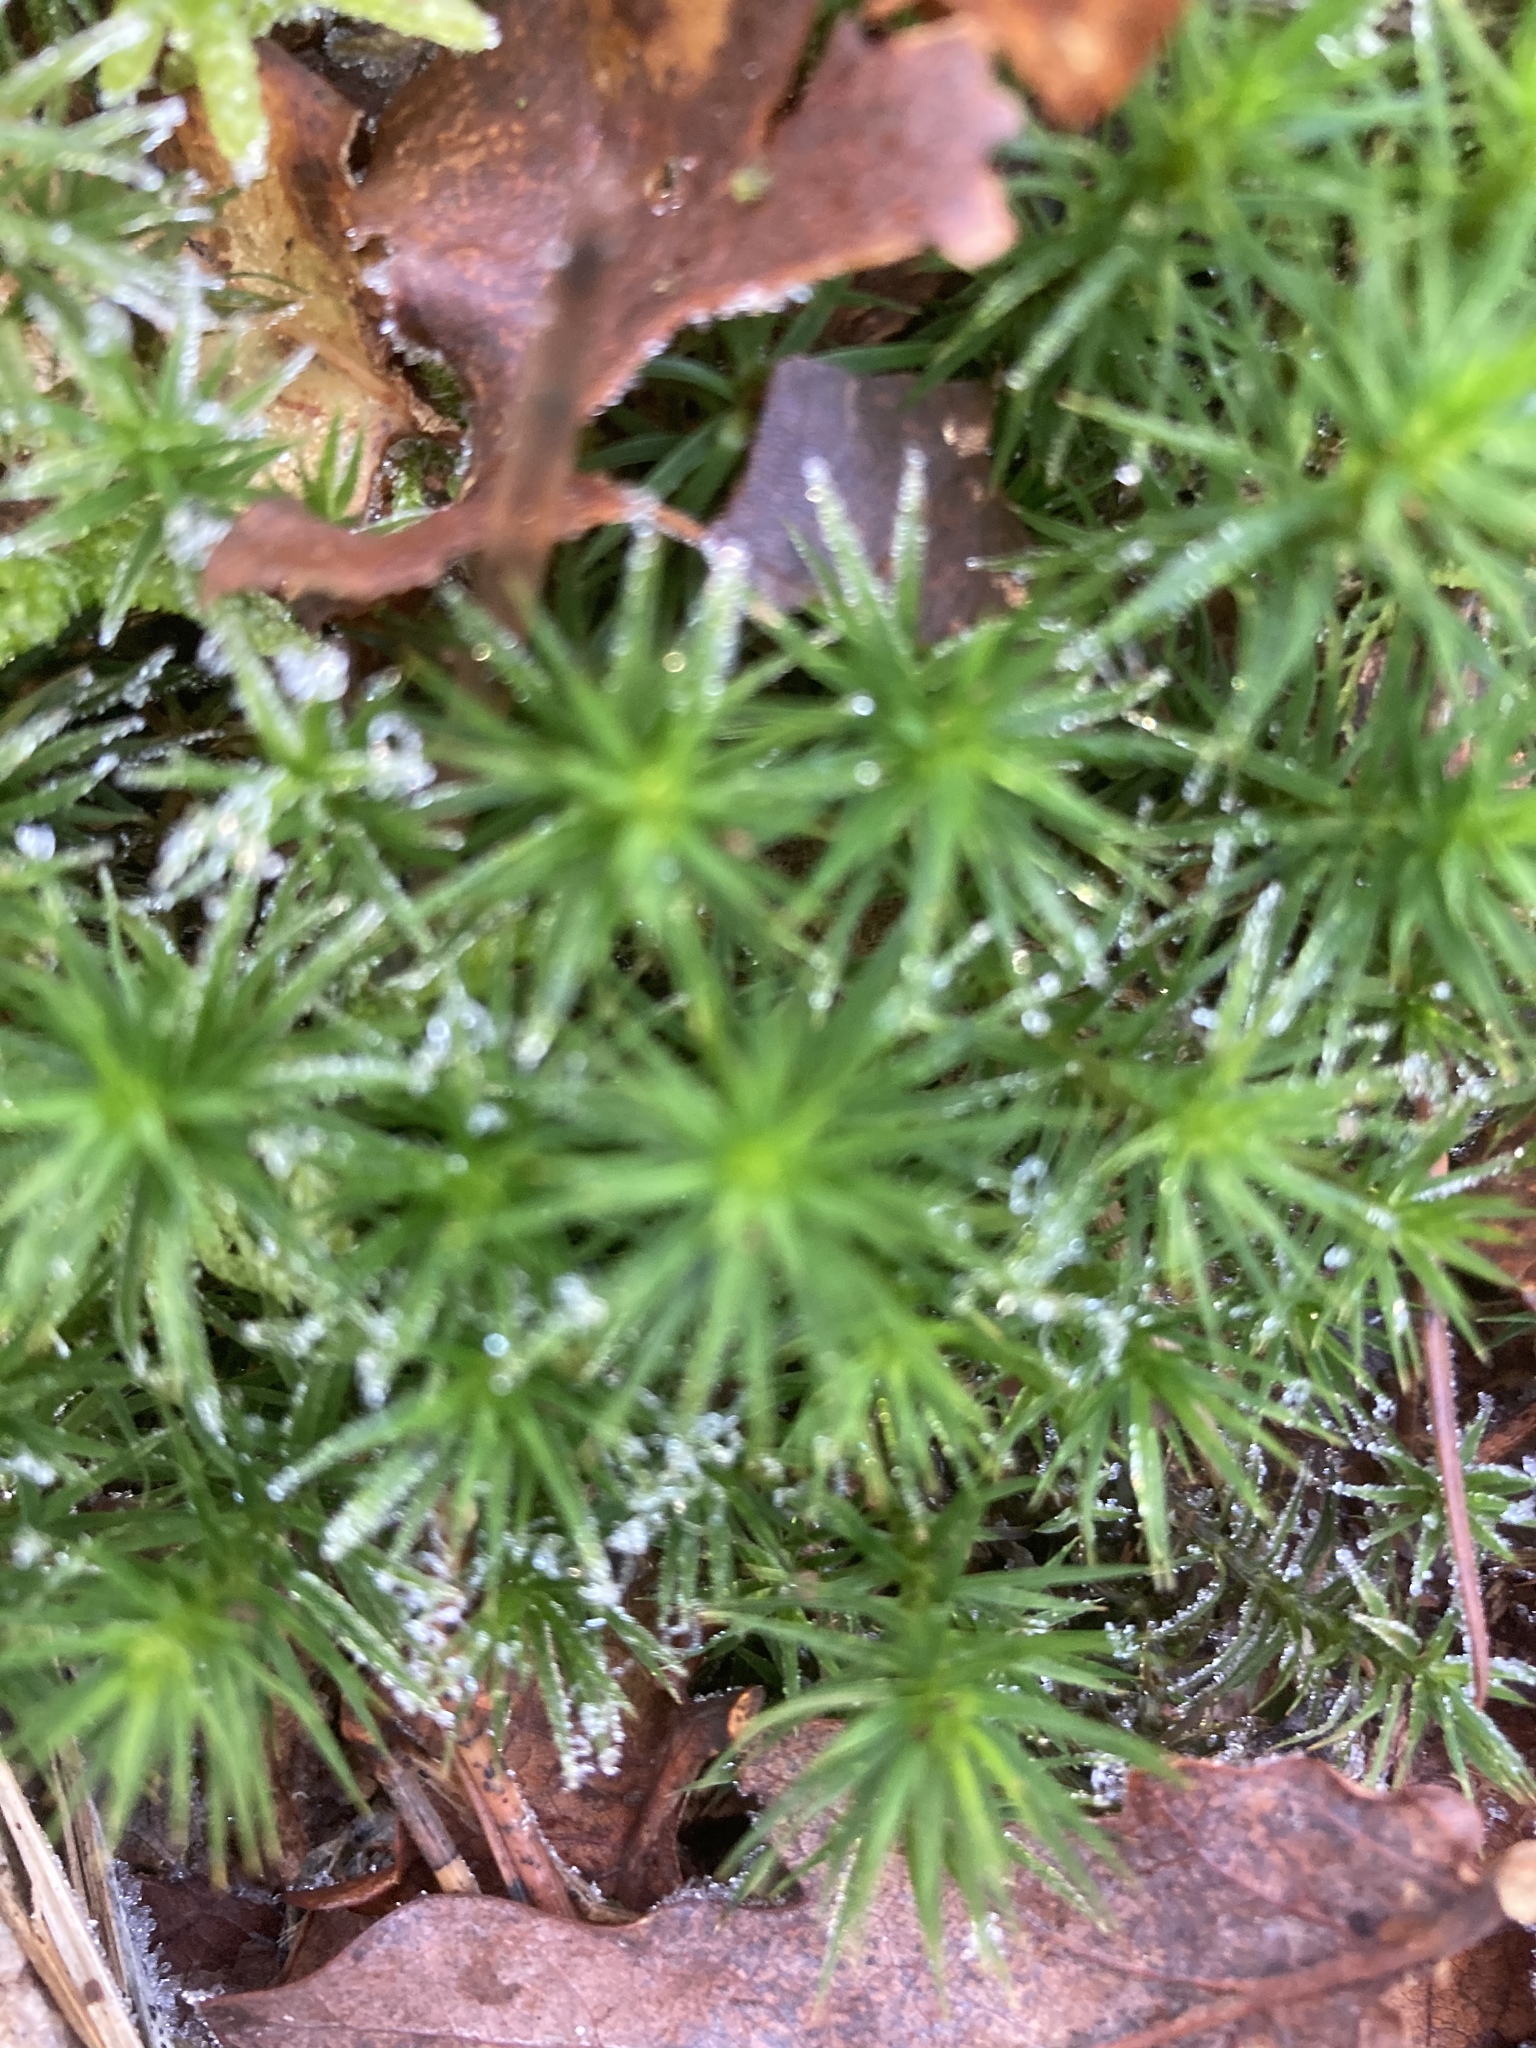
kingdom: Plantae
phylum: Bryophyta
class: Polytrichopsida
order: Polytrichales
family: Polytrichaceae
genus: Polytrichum
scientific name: Polytrichum commune
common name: Common haircap
